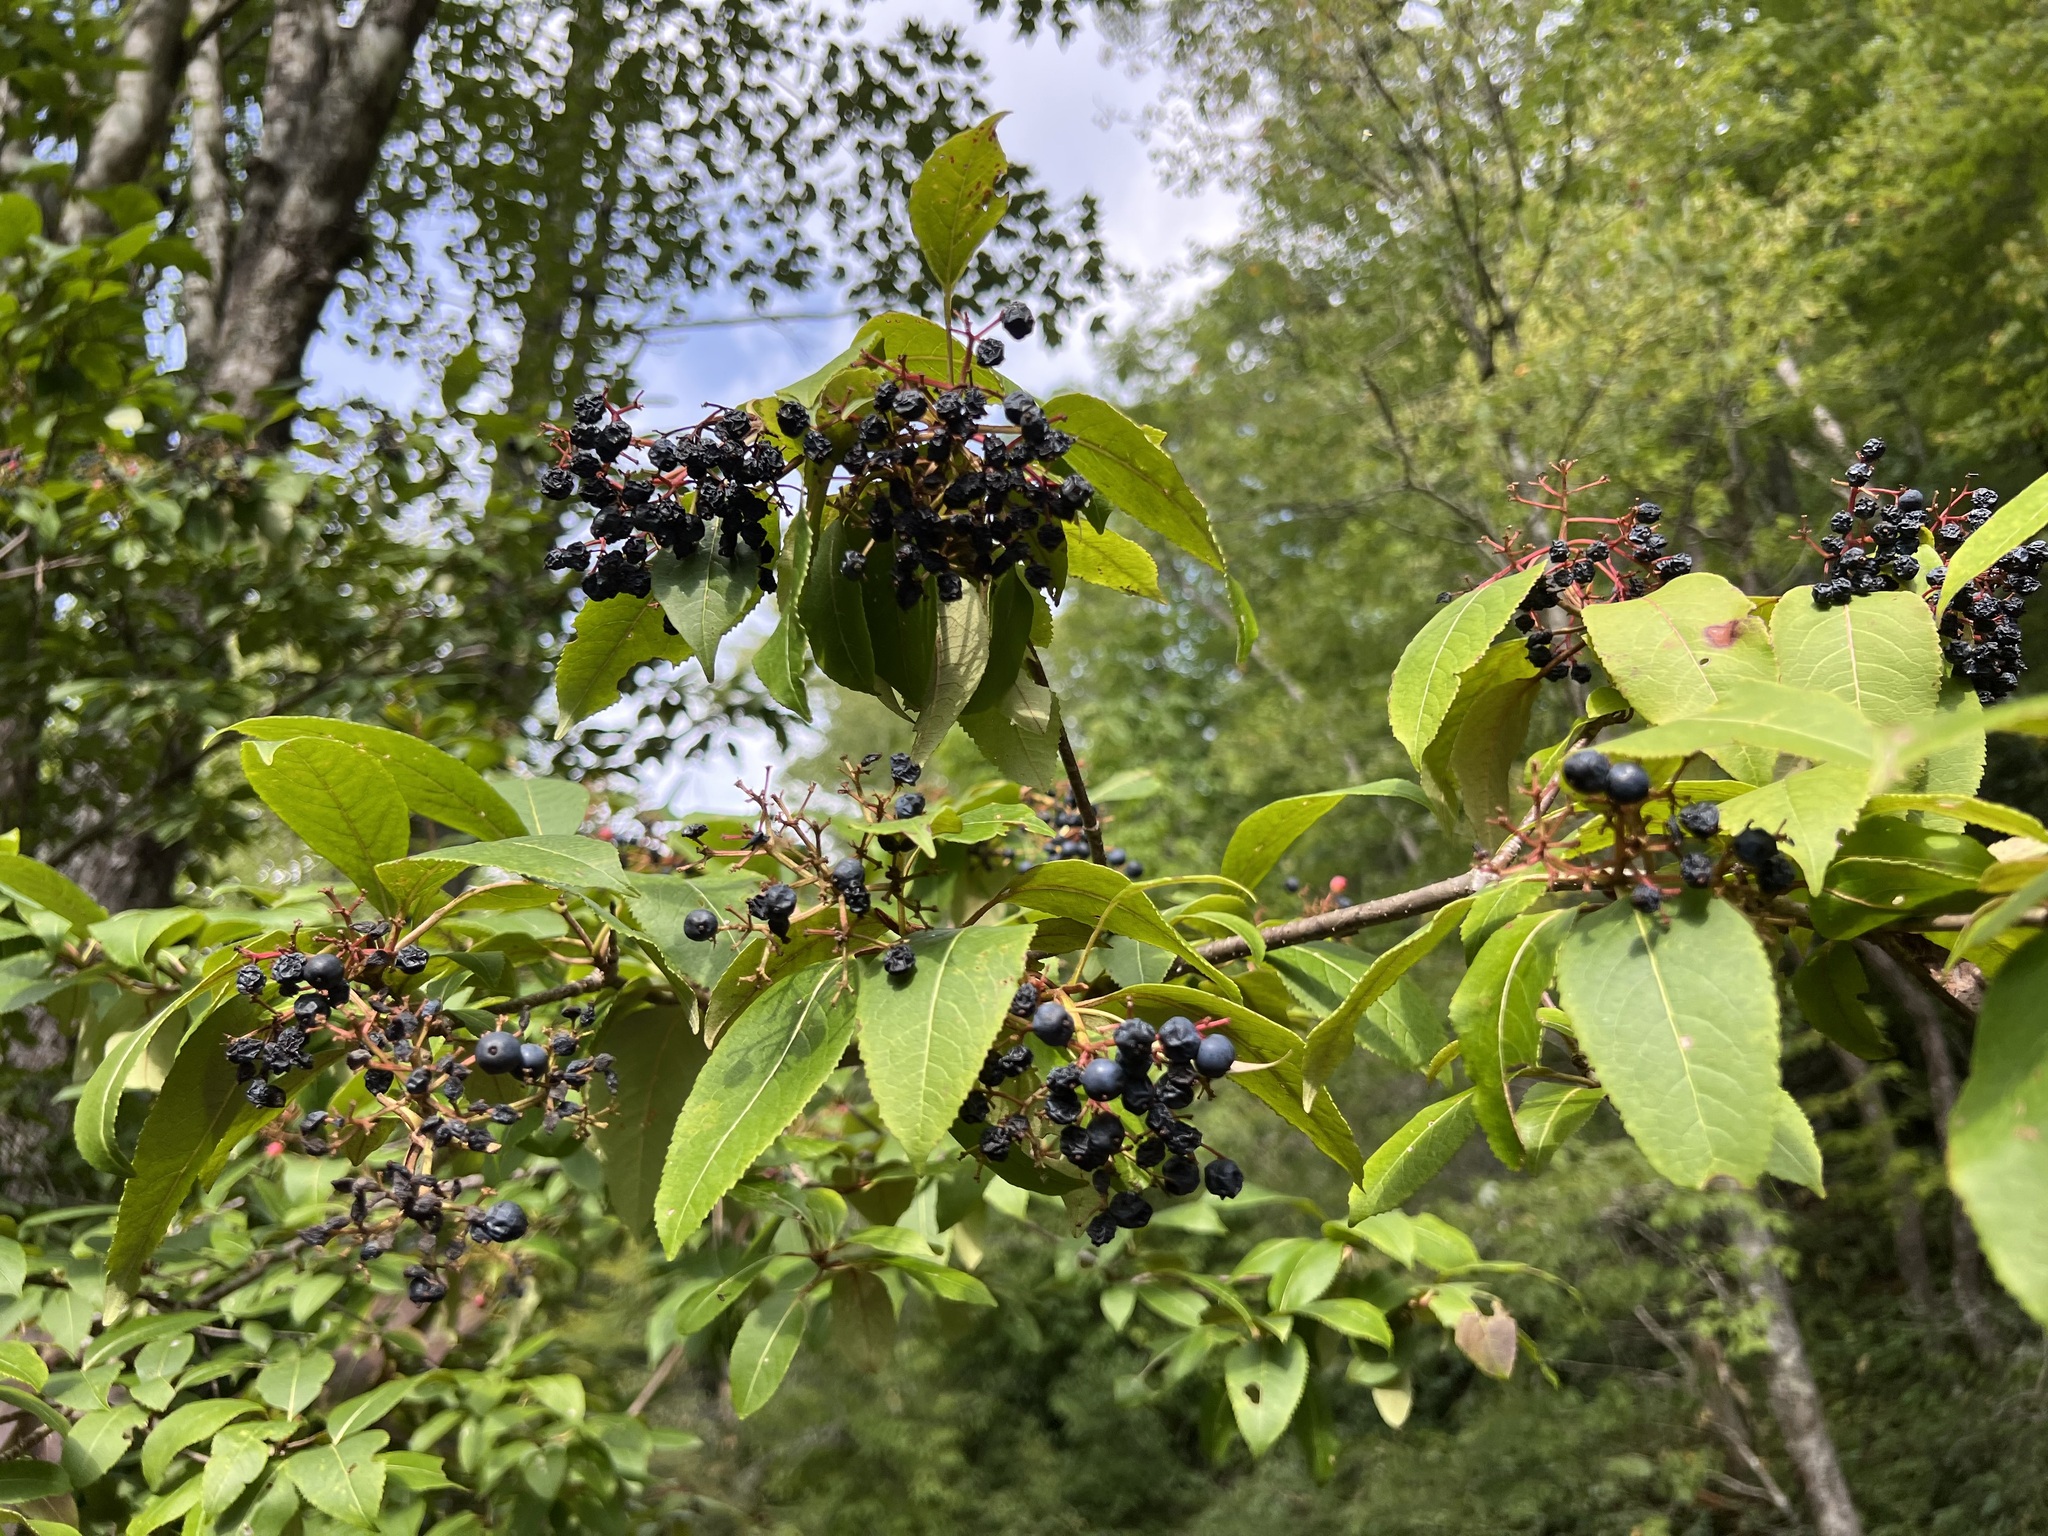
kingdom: Plantae
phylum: Tracheophyta
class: Magnoliopsida
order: Dipsacales
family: Viburnaceae
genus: Viburnum
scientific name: Viburnum cassinoides
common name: Swamp haw
